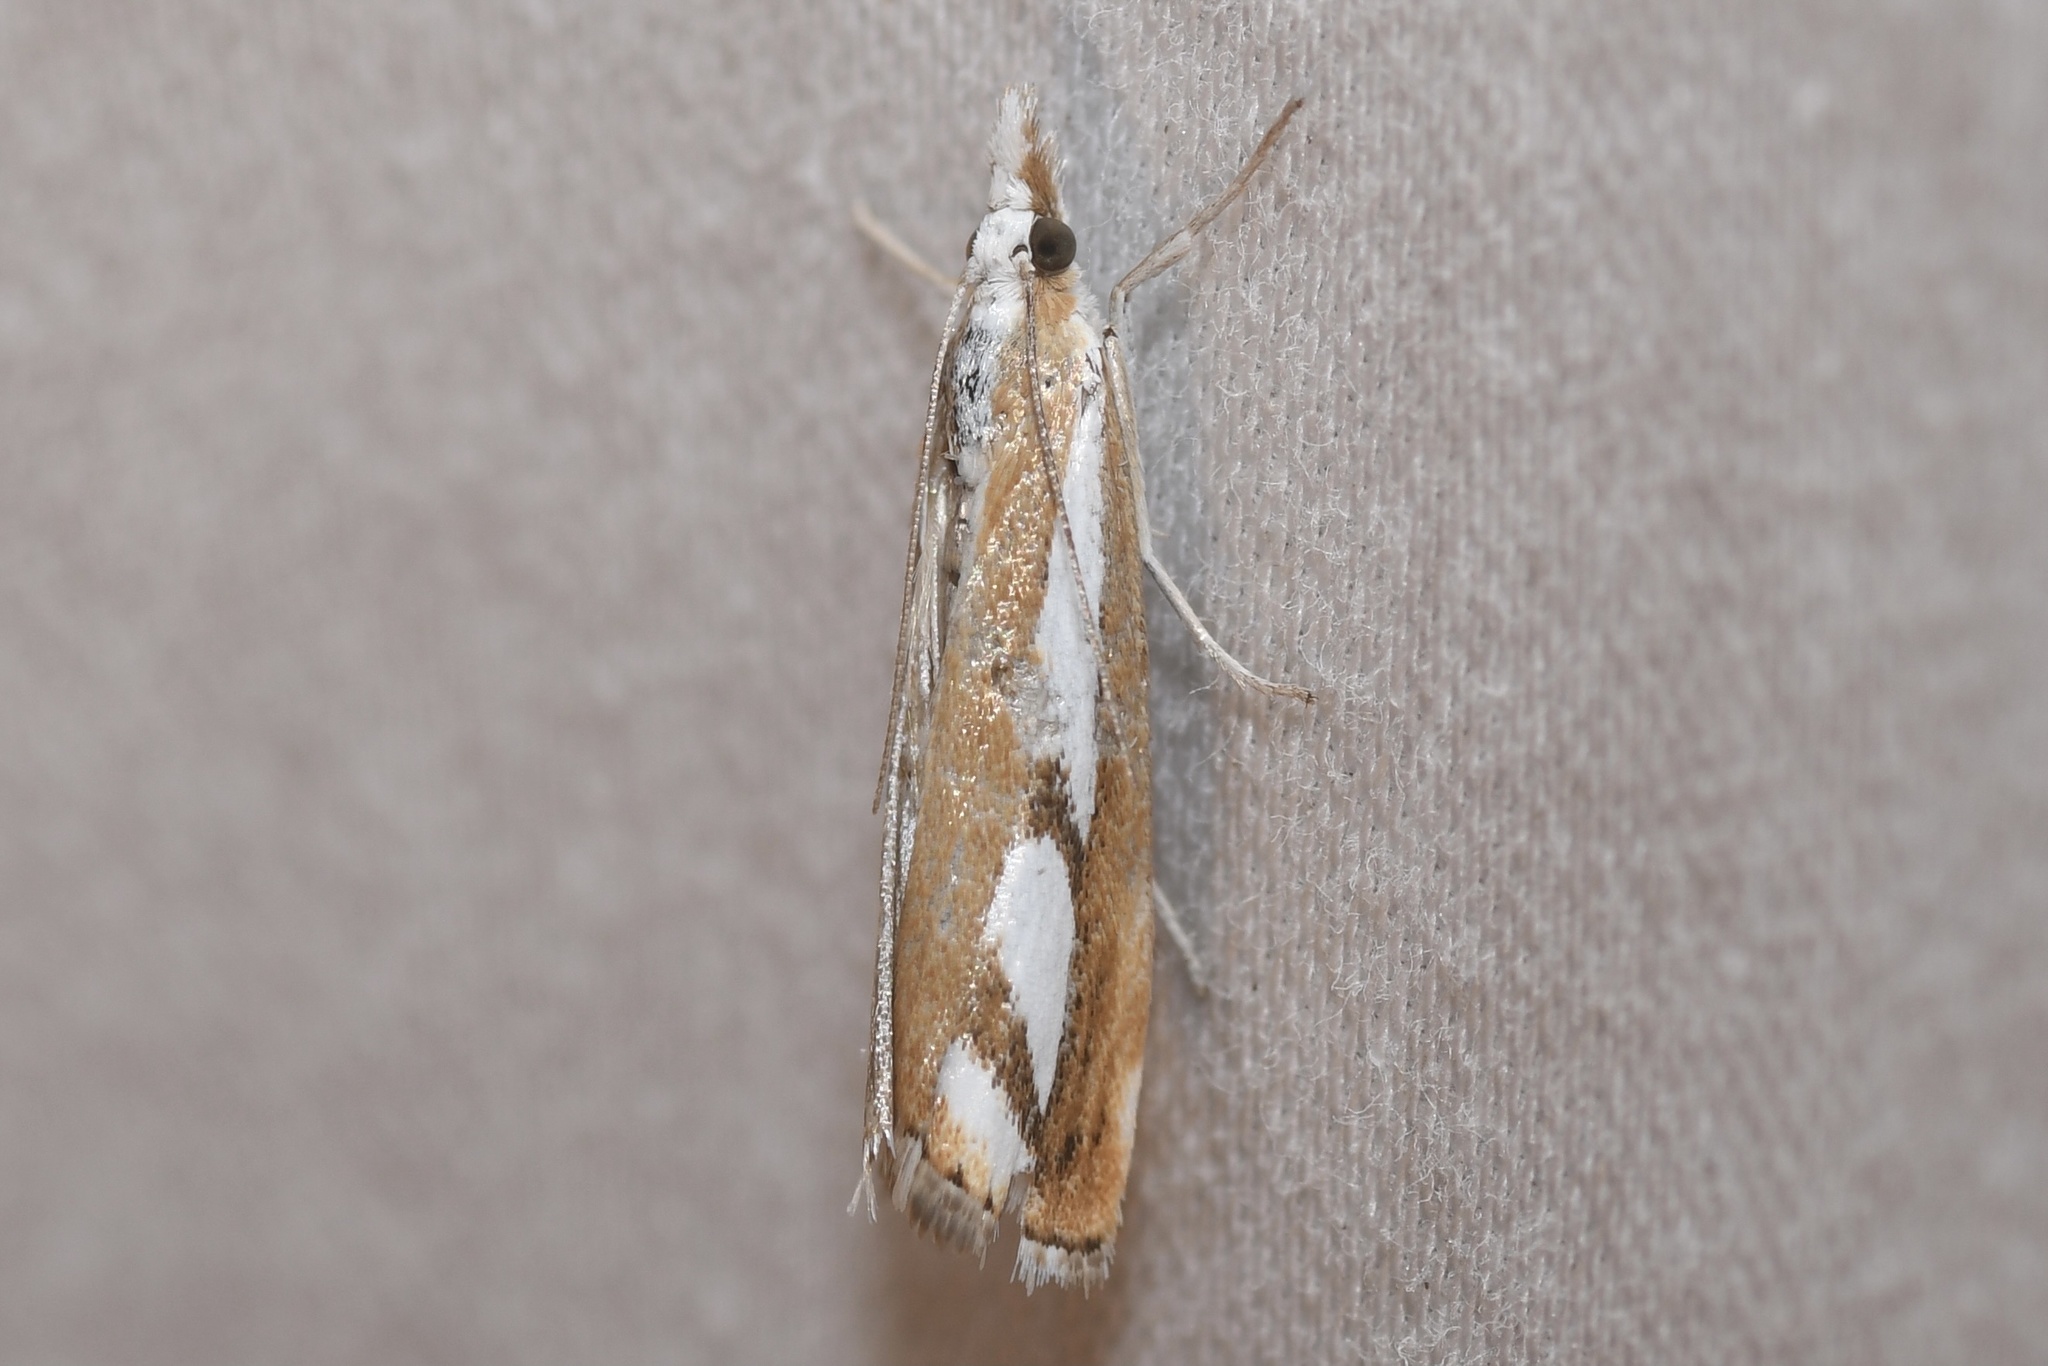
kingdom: Animalia
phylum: Arthropoda
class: Insecta
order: Lepidoptera
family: Crambidae
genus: Catoptria
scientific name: Catoptria latiradiellus
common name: Two-banded catoptria moth
